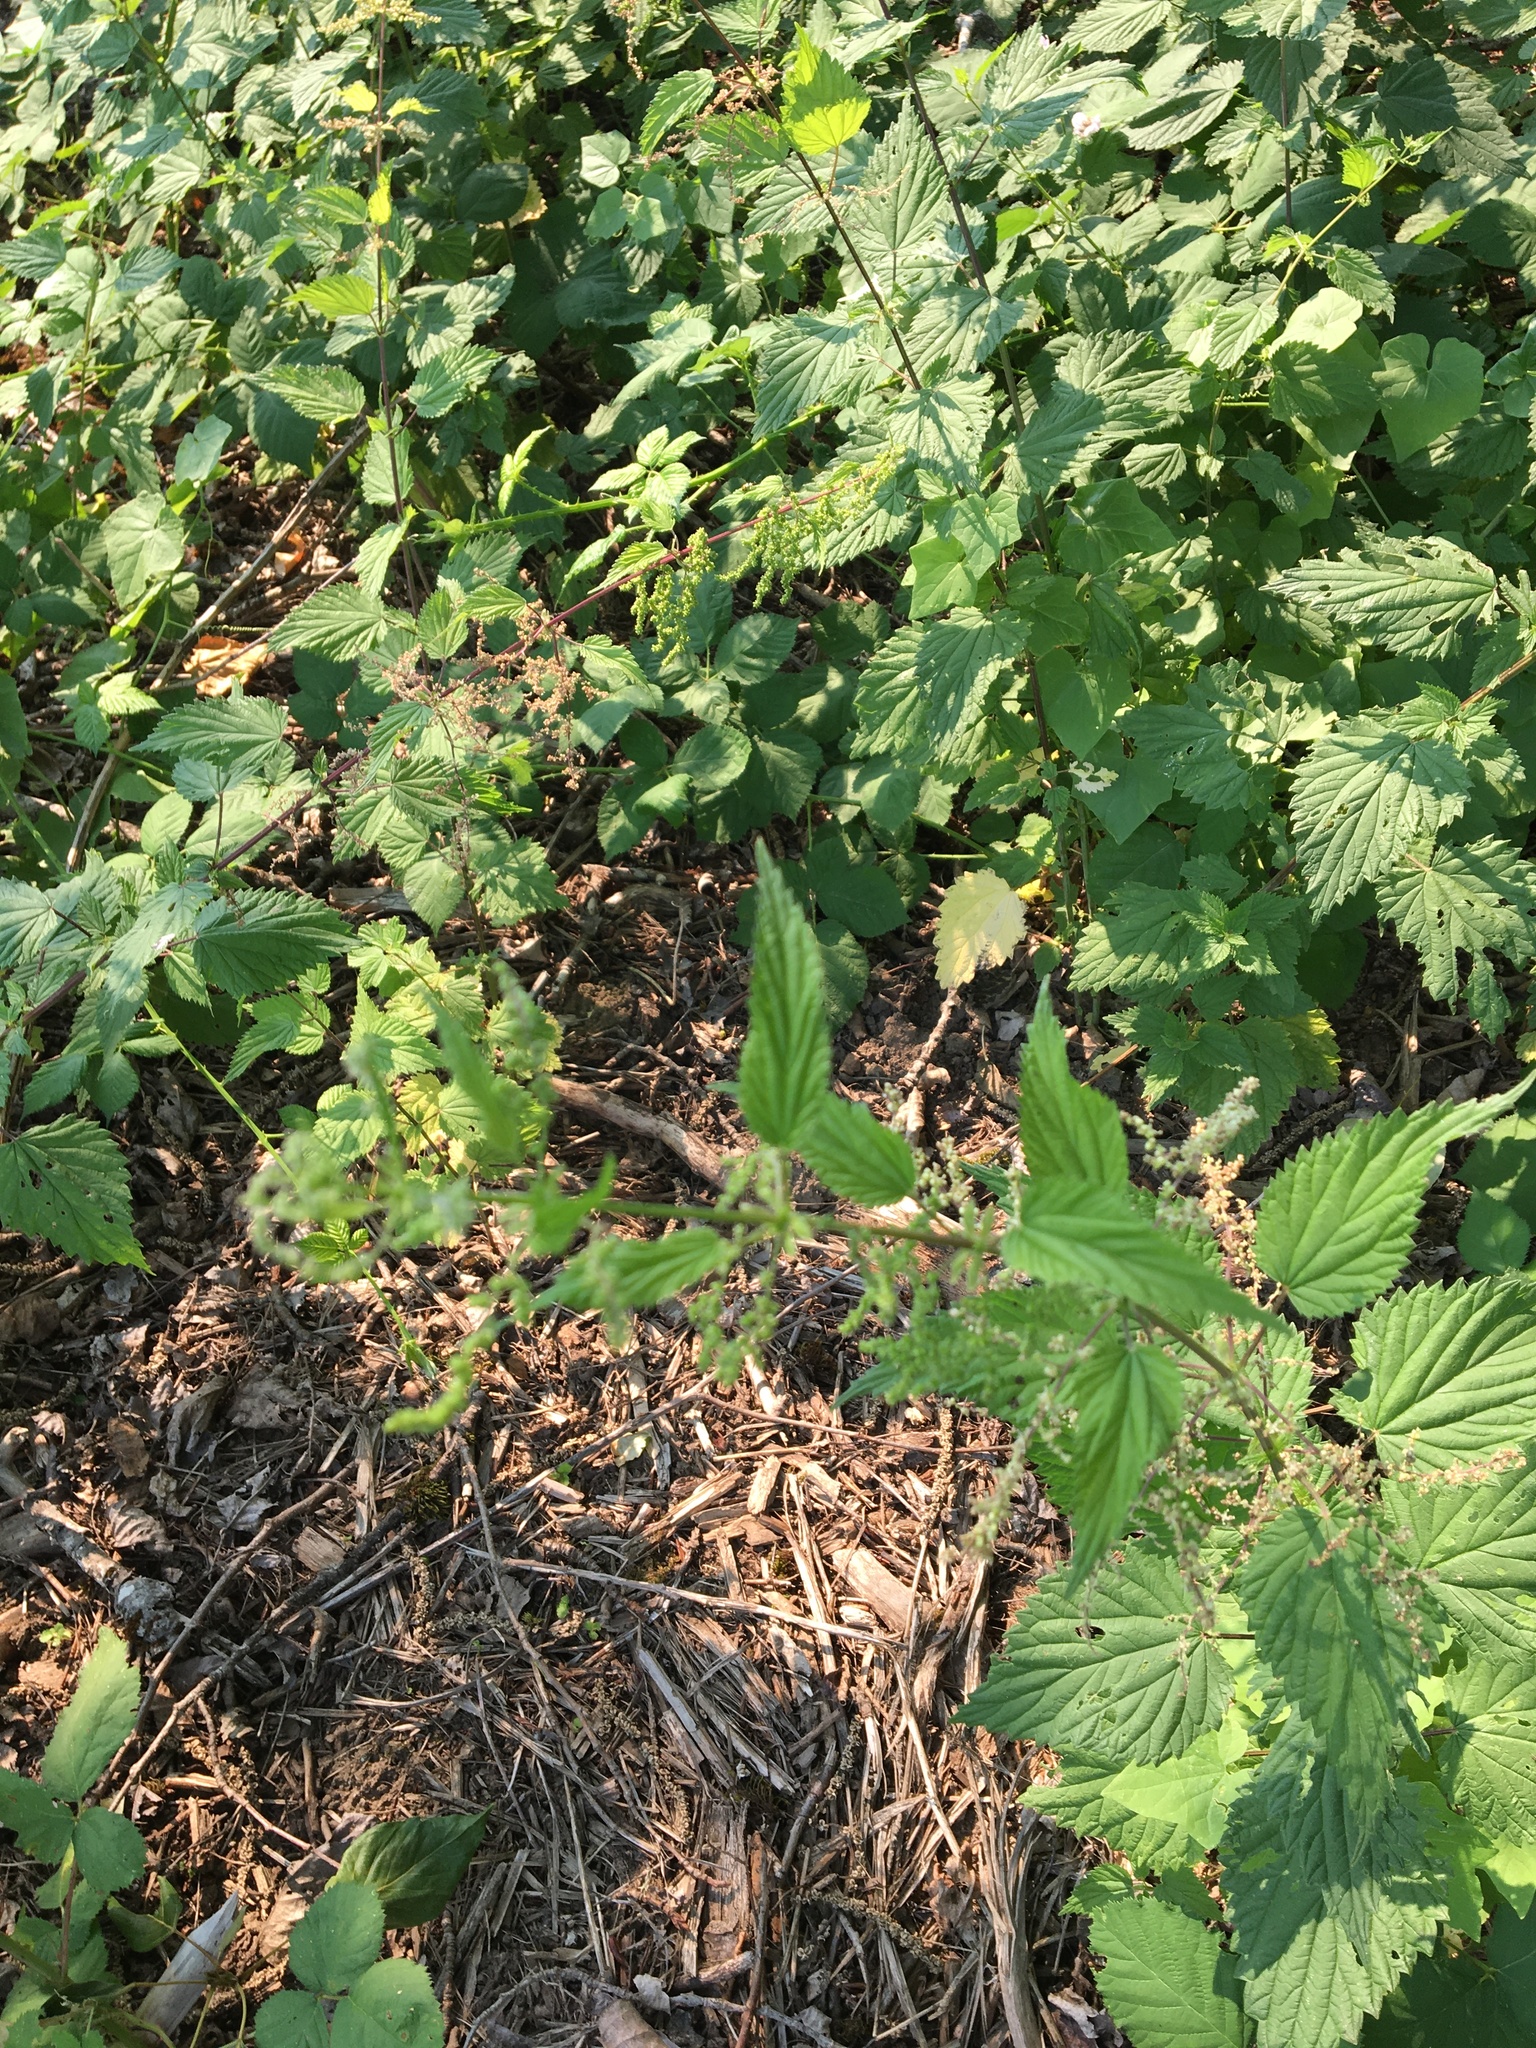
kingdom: Plantae
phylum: Tracheophyta
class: Magnoliopsida
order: Rosales
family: Urticaceae
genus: Urtica
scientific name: Urtica dioica
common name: Common nettle
